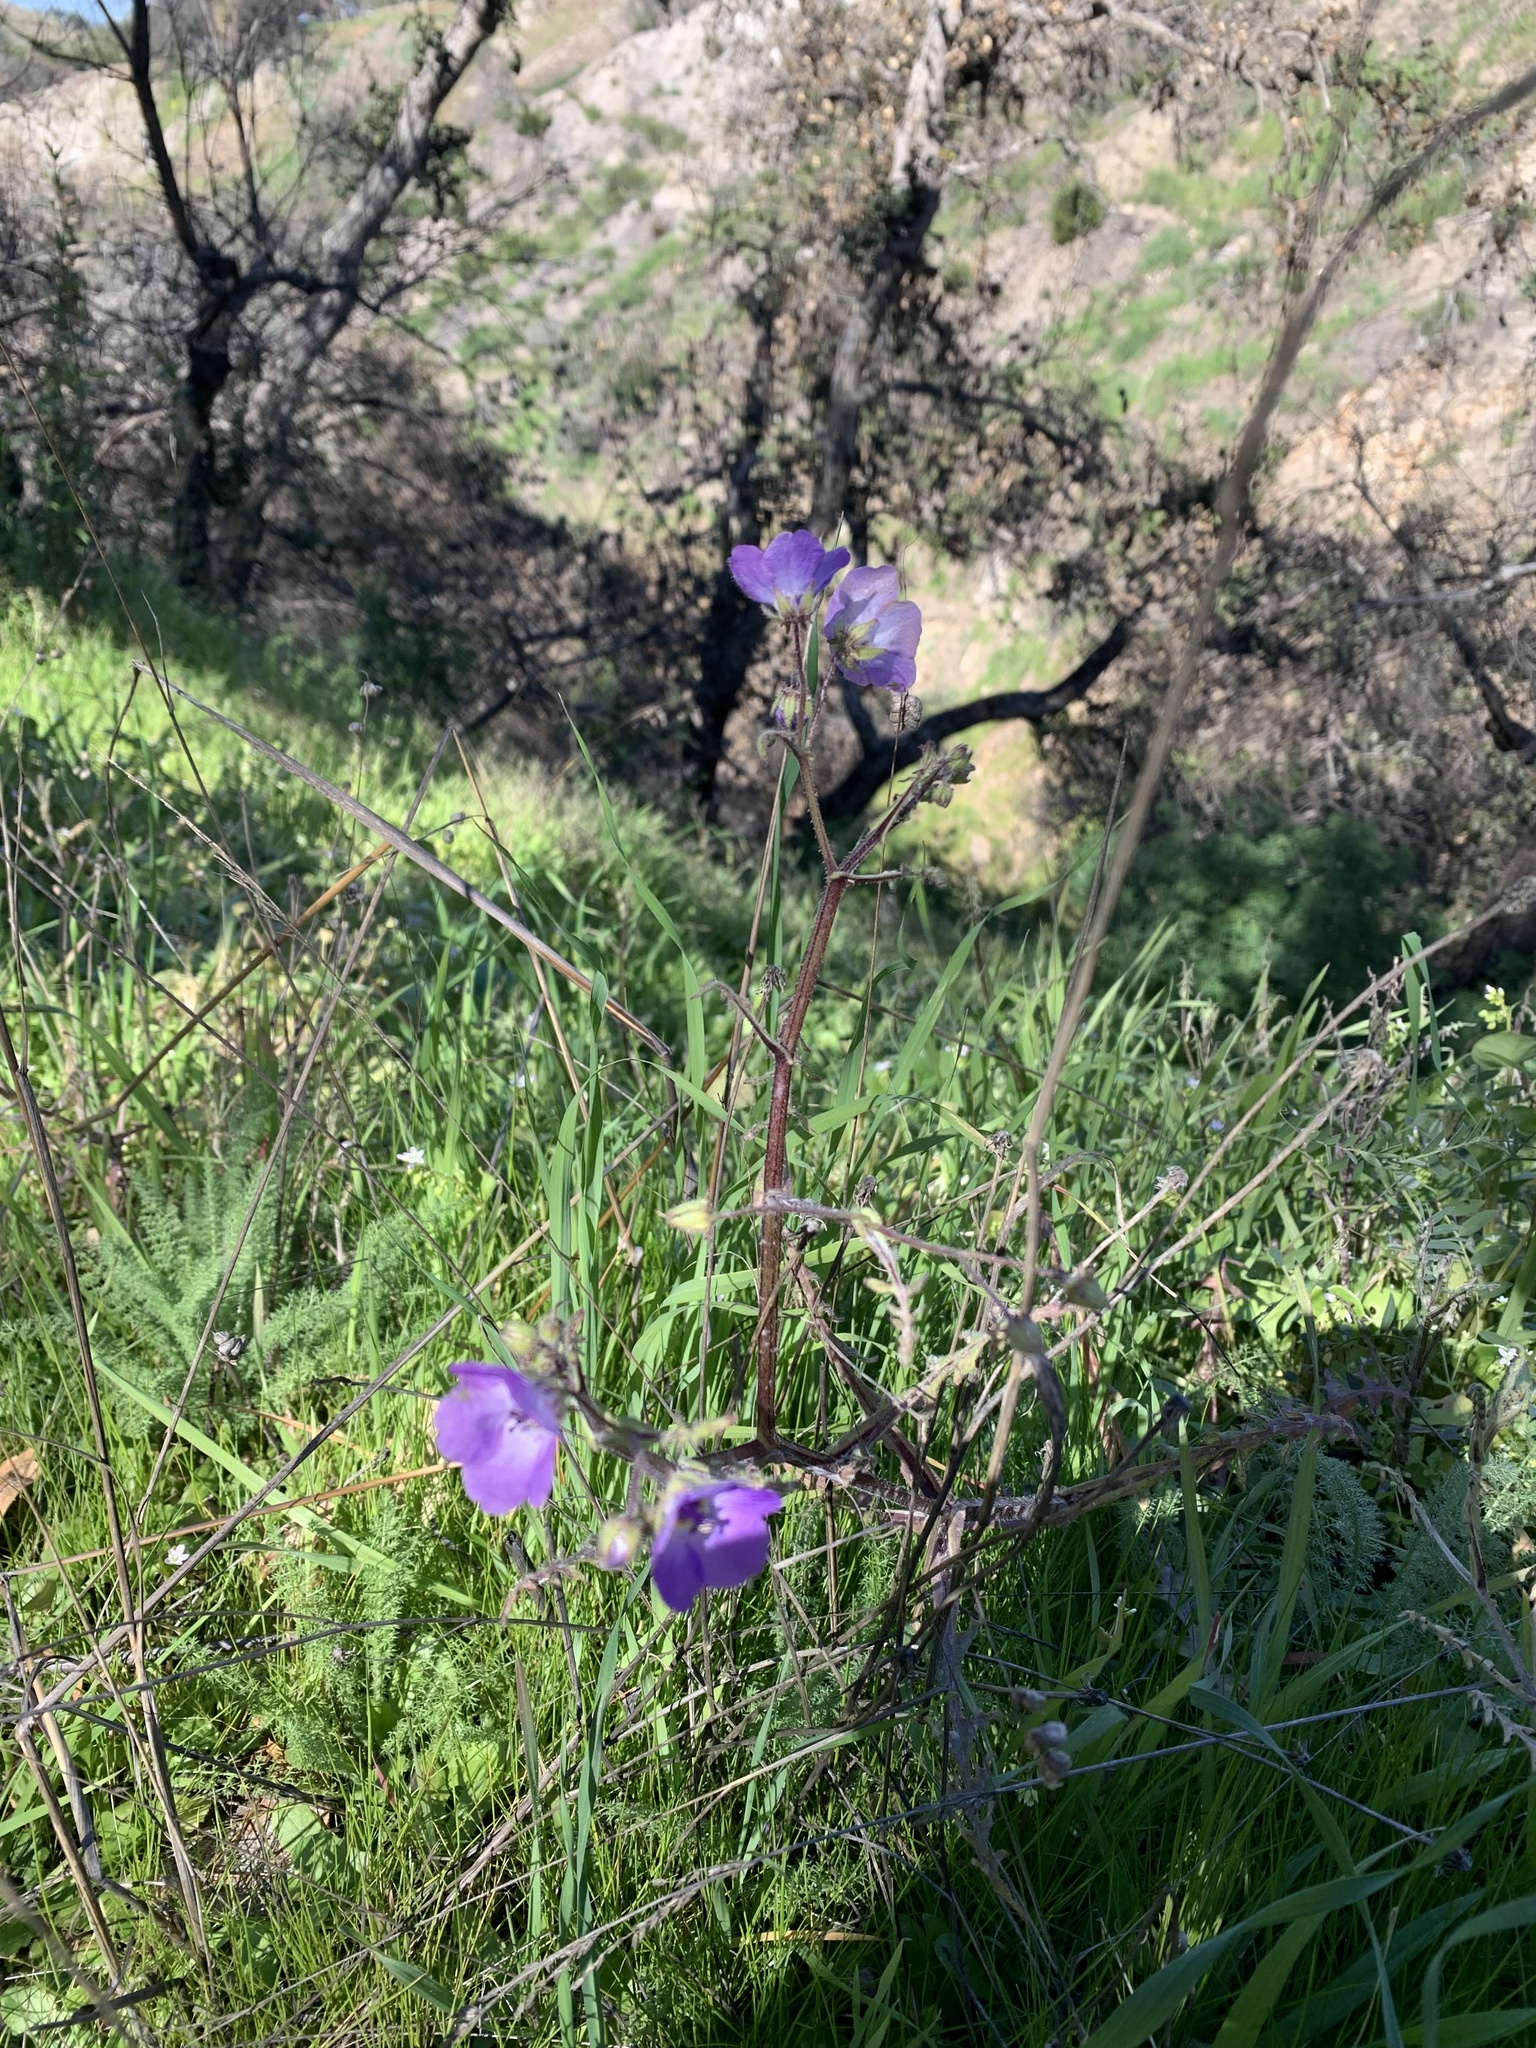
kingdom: Plantae
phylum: Tracheophyta
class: Magnoliopsida
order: Boraginales
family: Hydrophyllaceae
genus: Pholistoma
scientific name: Pholistoma auritum
